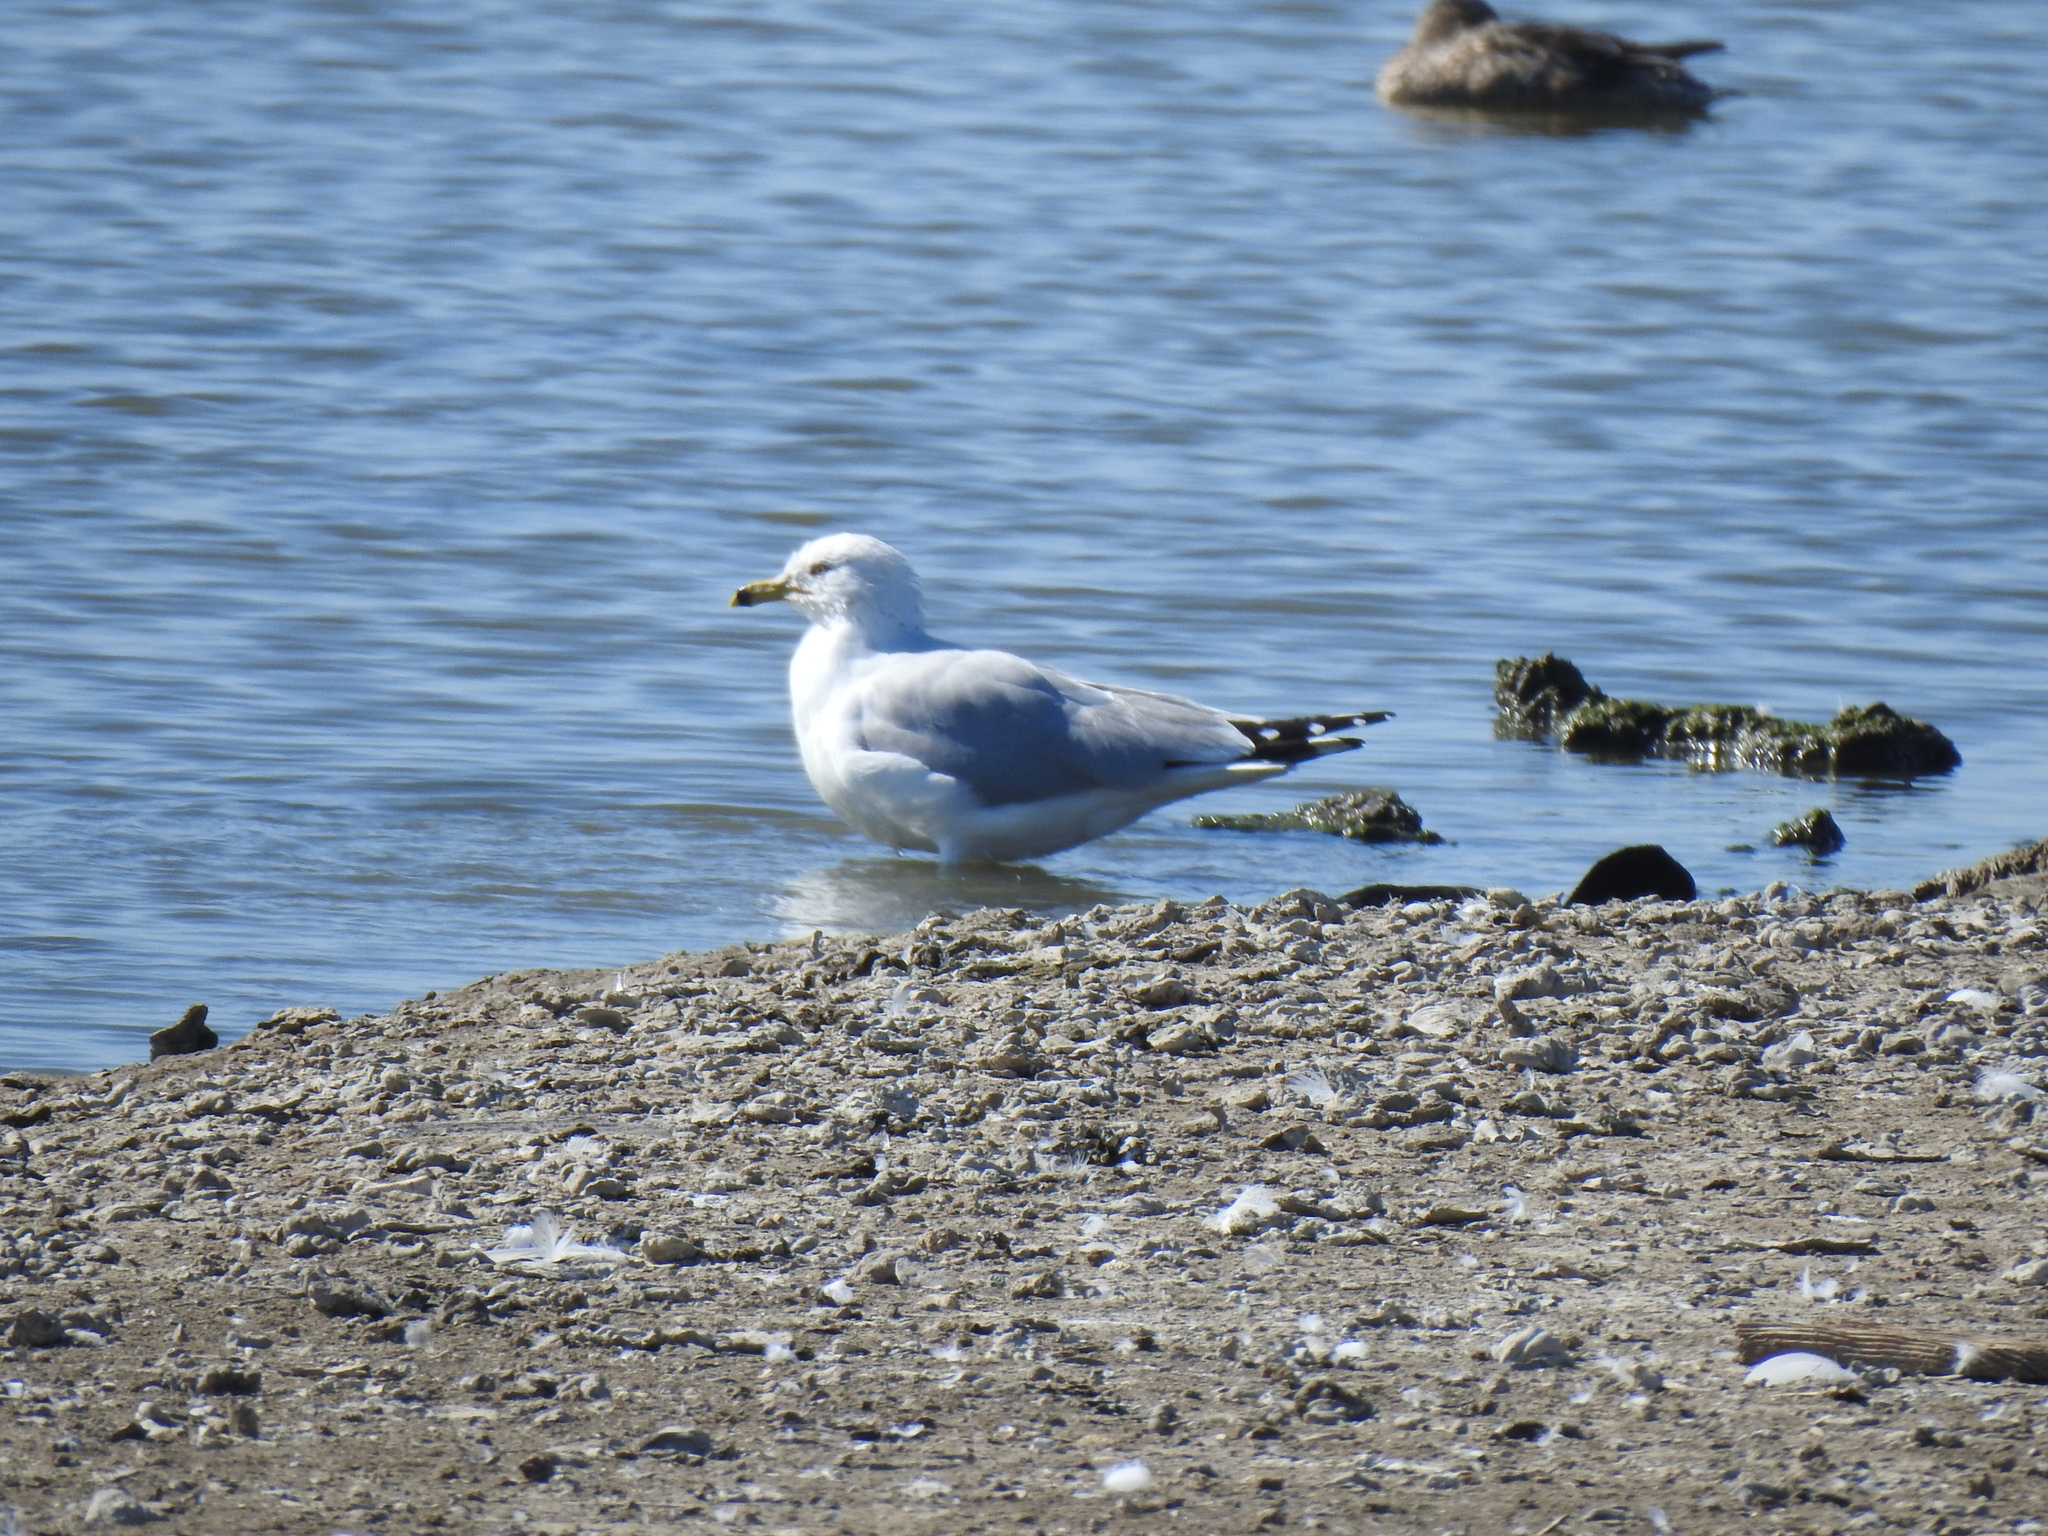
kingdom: Animalia
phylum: Chordata
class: Aves
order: Charadriiformes
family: Laridae
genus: Larus
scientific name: Larus delawarensis
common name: Ring-billed gull
